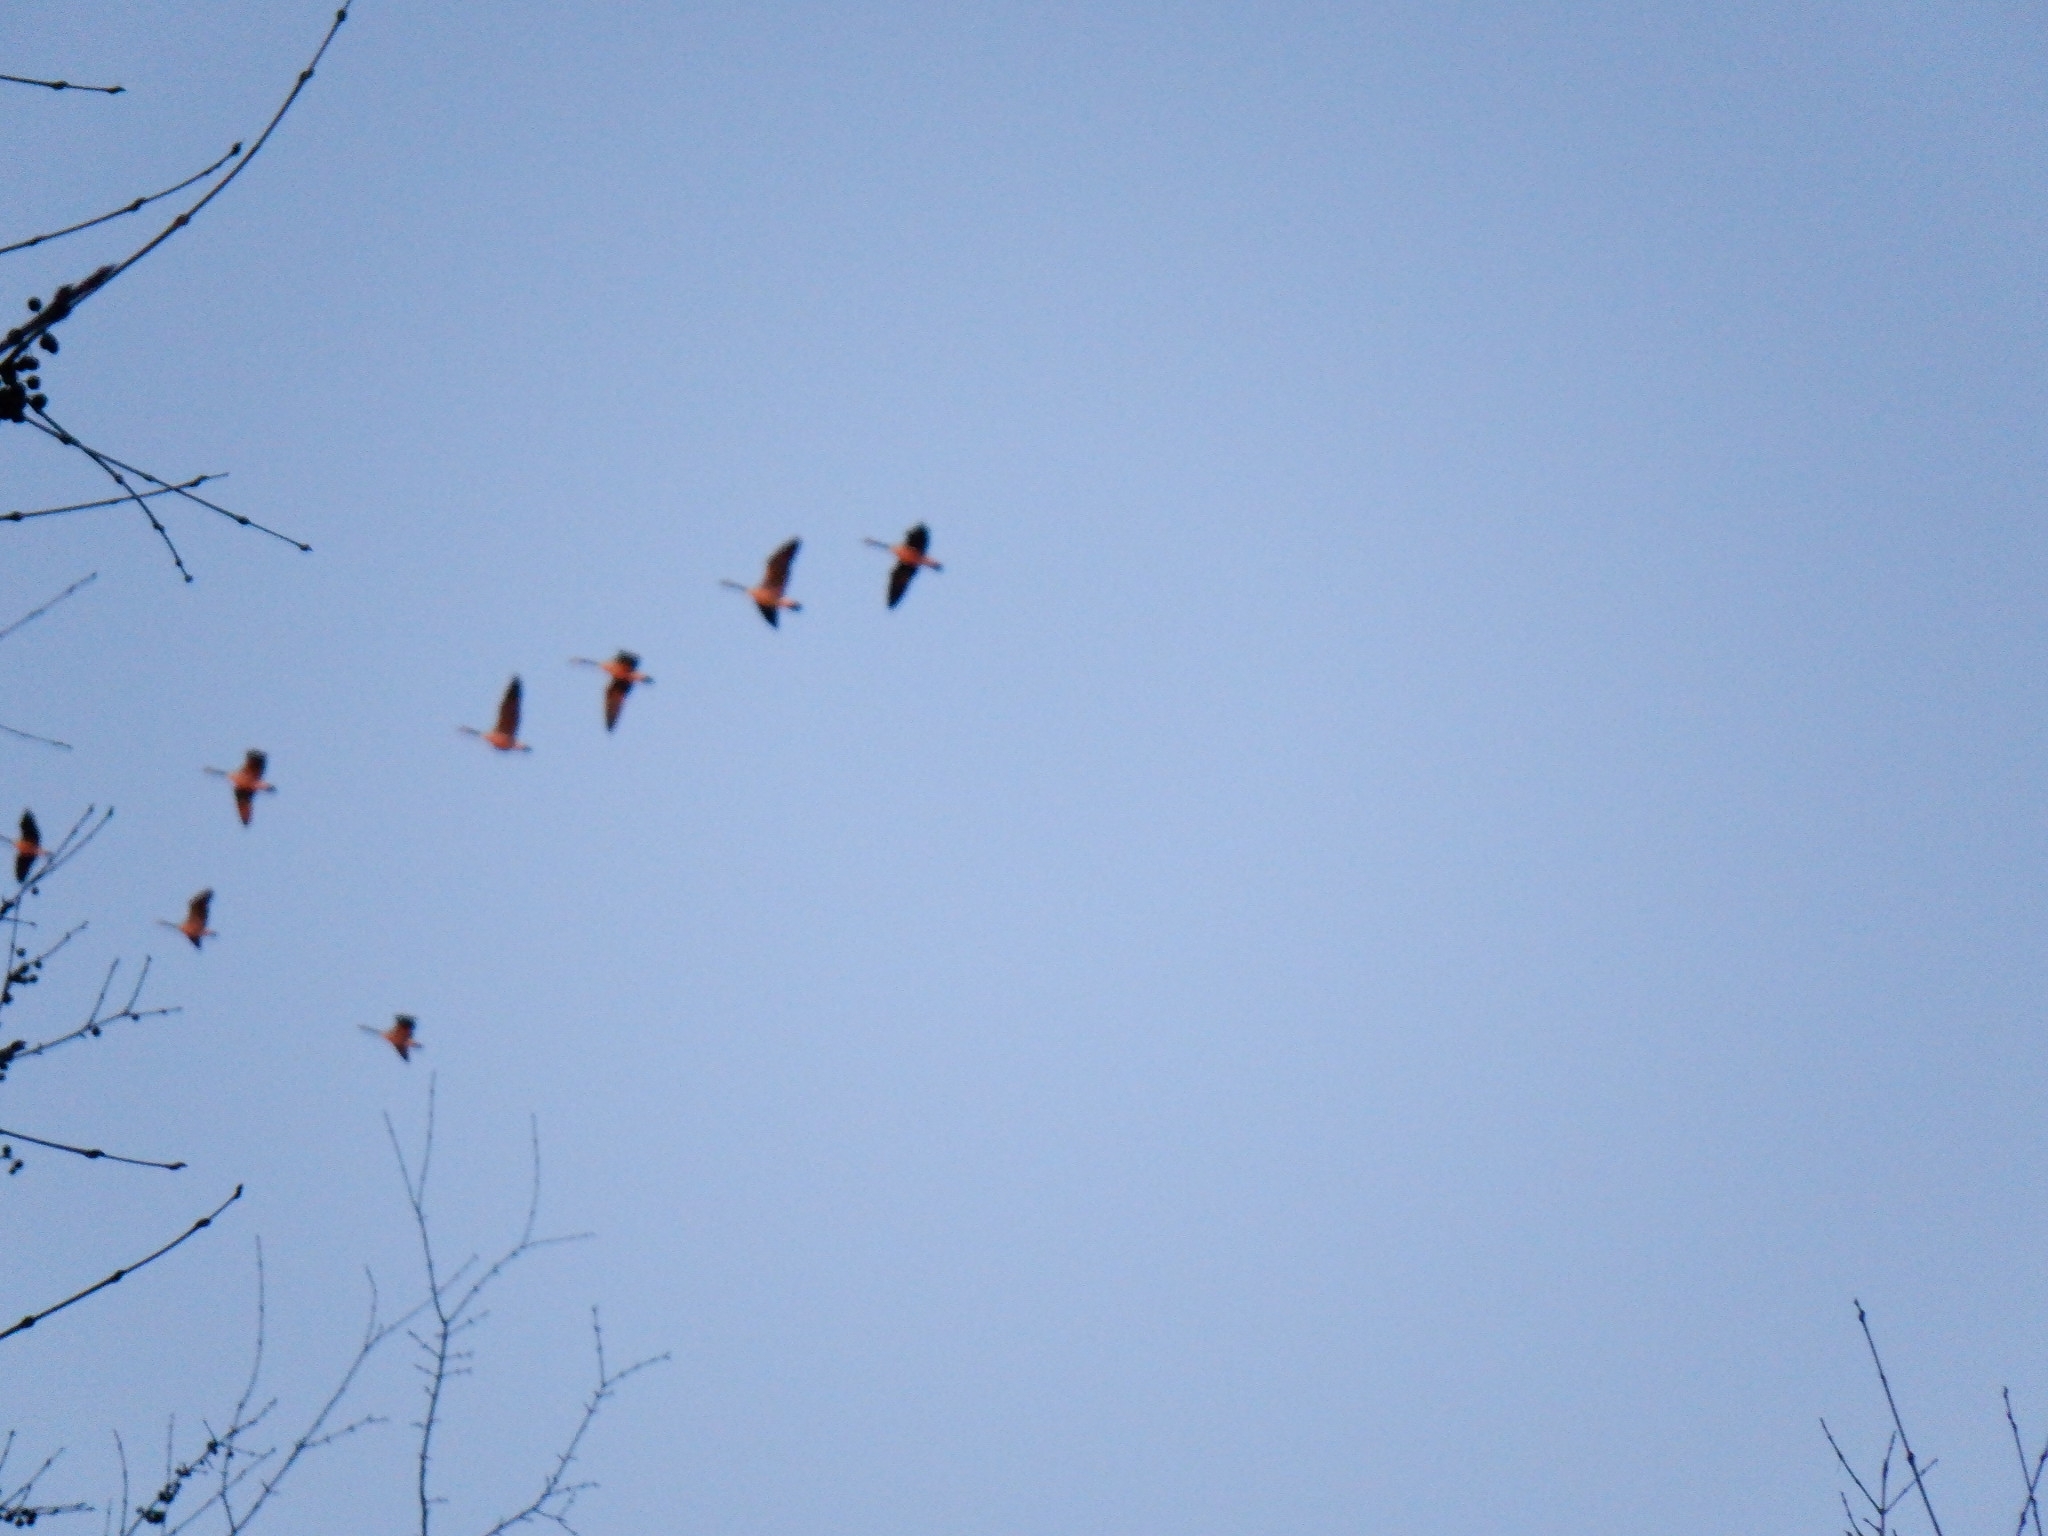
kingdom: Animalia
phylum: Chordata
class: Aves
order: Anseriformes
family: Anatidae
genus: Branta
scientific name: Branta canadensis
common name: Canada goose
